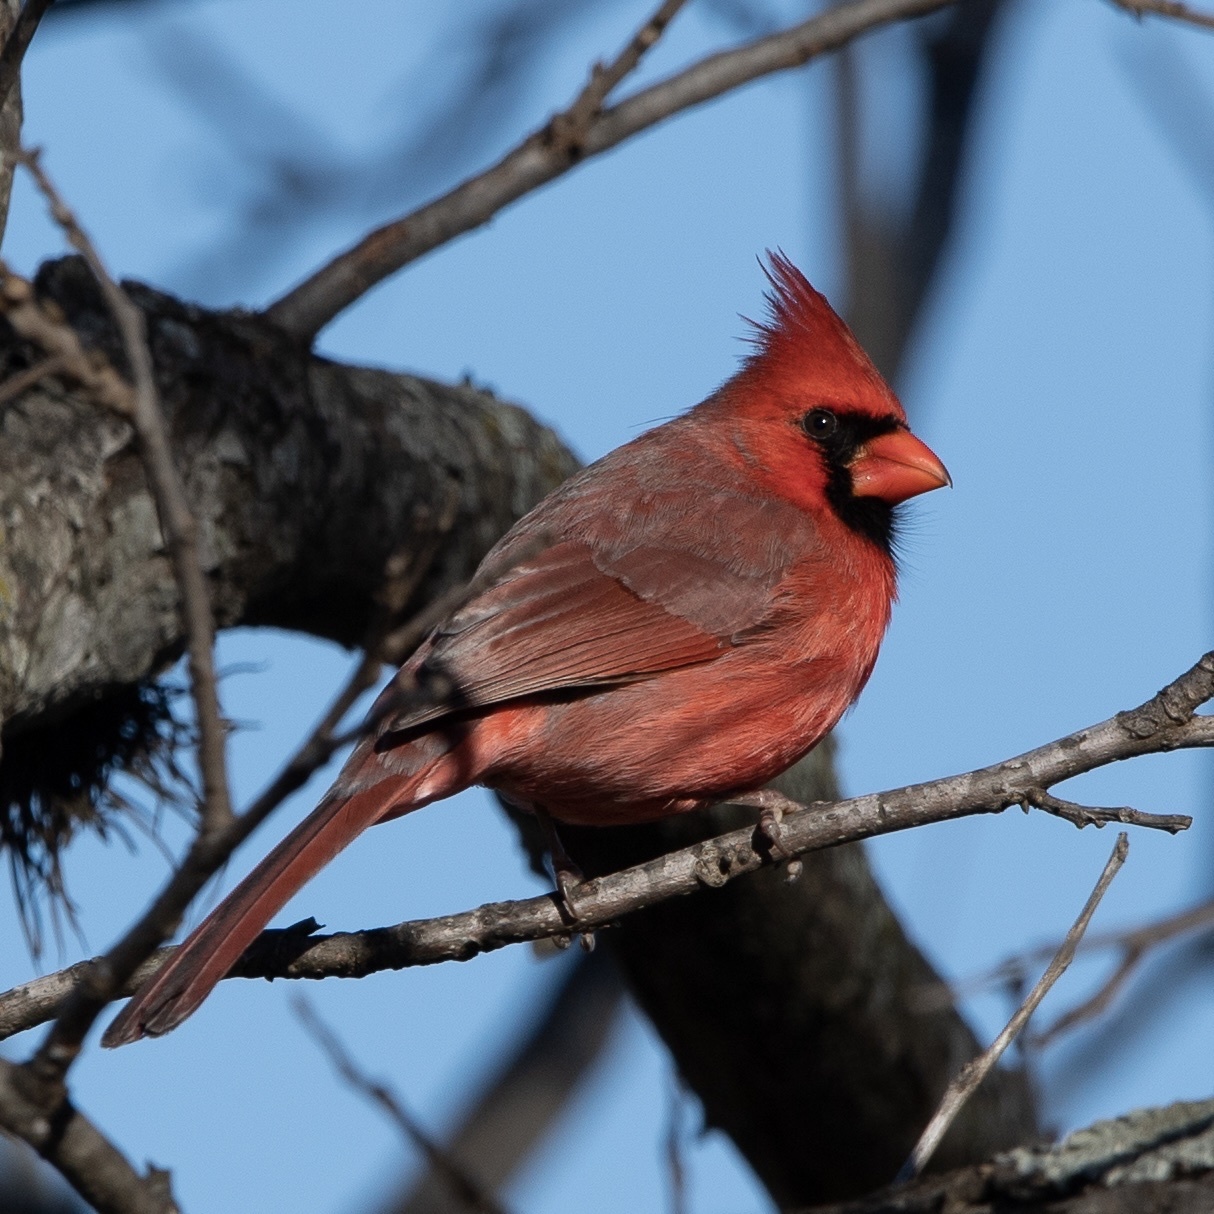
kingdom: Animalia
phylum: Chordata
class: Aves
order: Passeriformes
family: Cardinalidae
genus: Cardinalis
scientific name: Cardinalis cardinalis
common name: Northern cardinal
